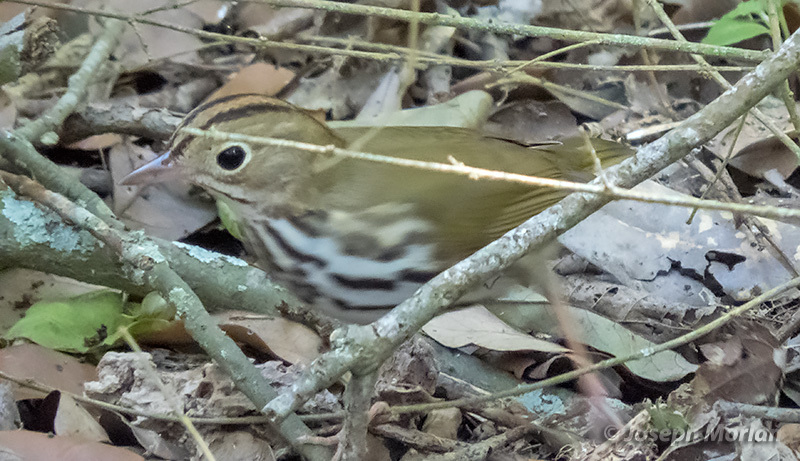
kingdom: Animalia
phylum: Chordata
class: Aves
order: Passeriformes
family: Parulidae
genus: Seiurus
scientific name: Seiurus aurocapilla
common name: Ovenbird
